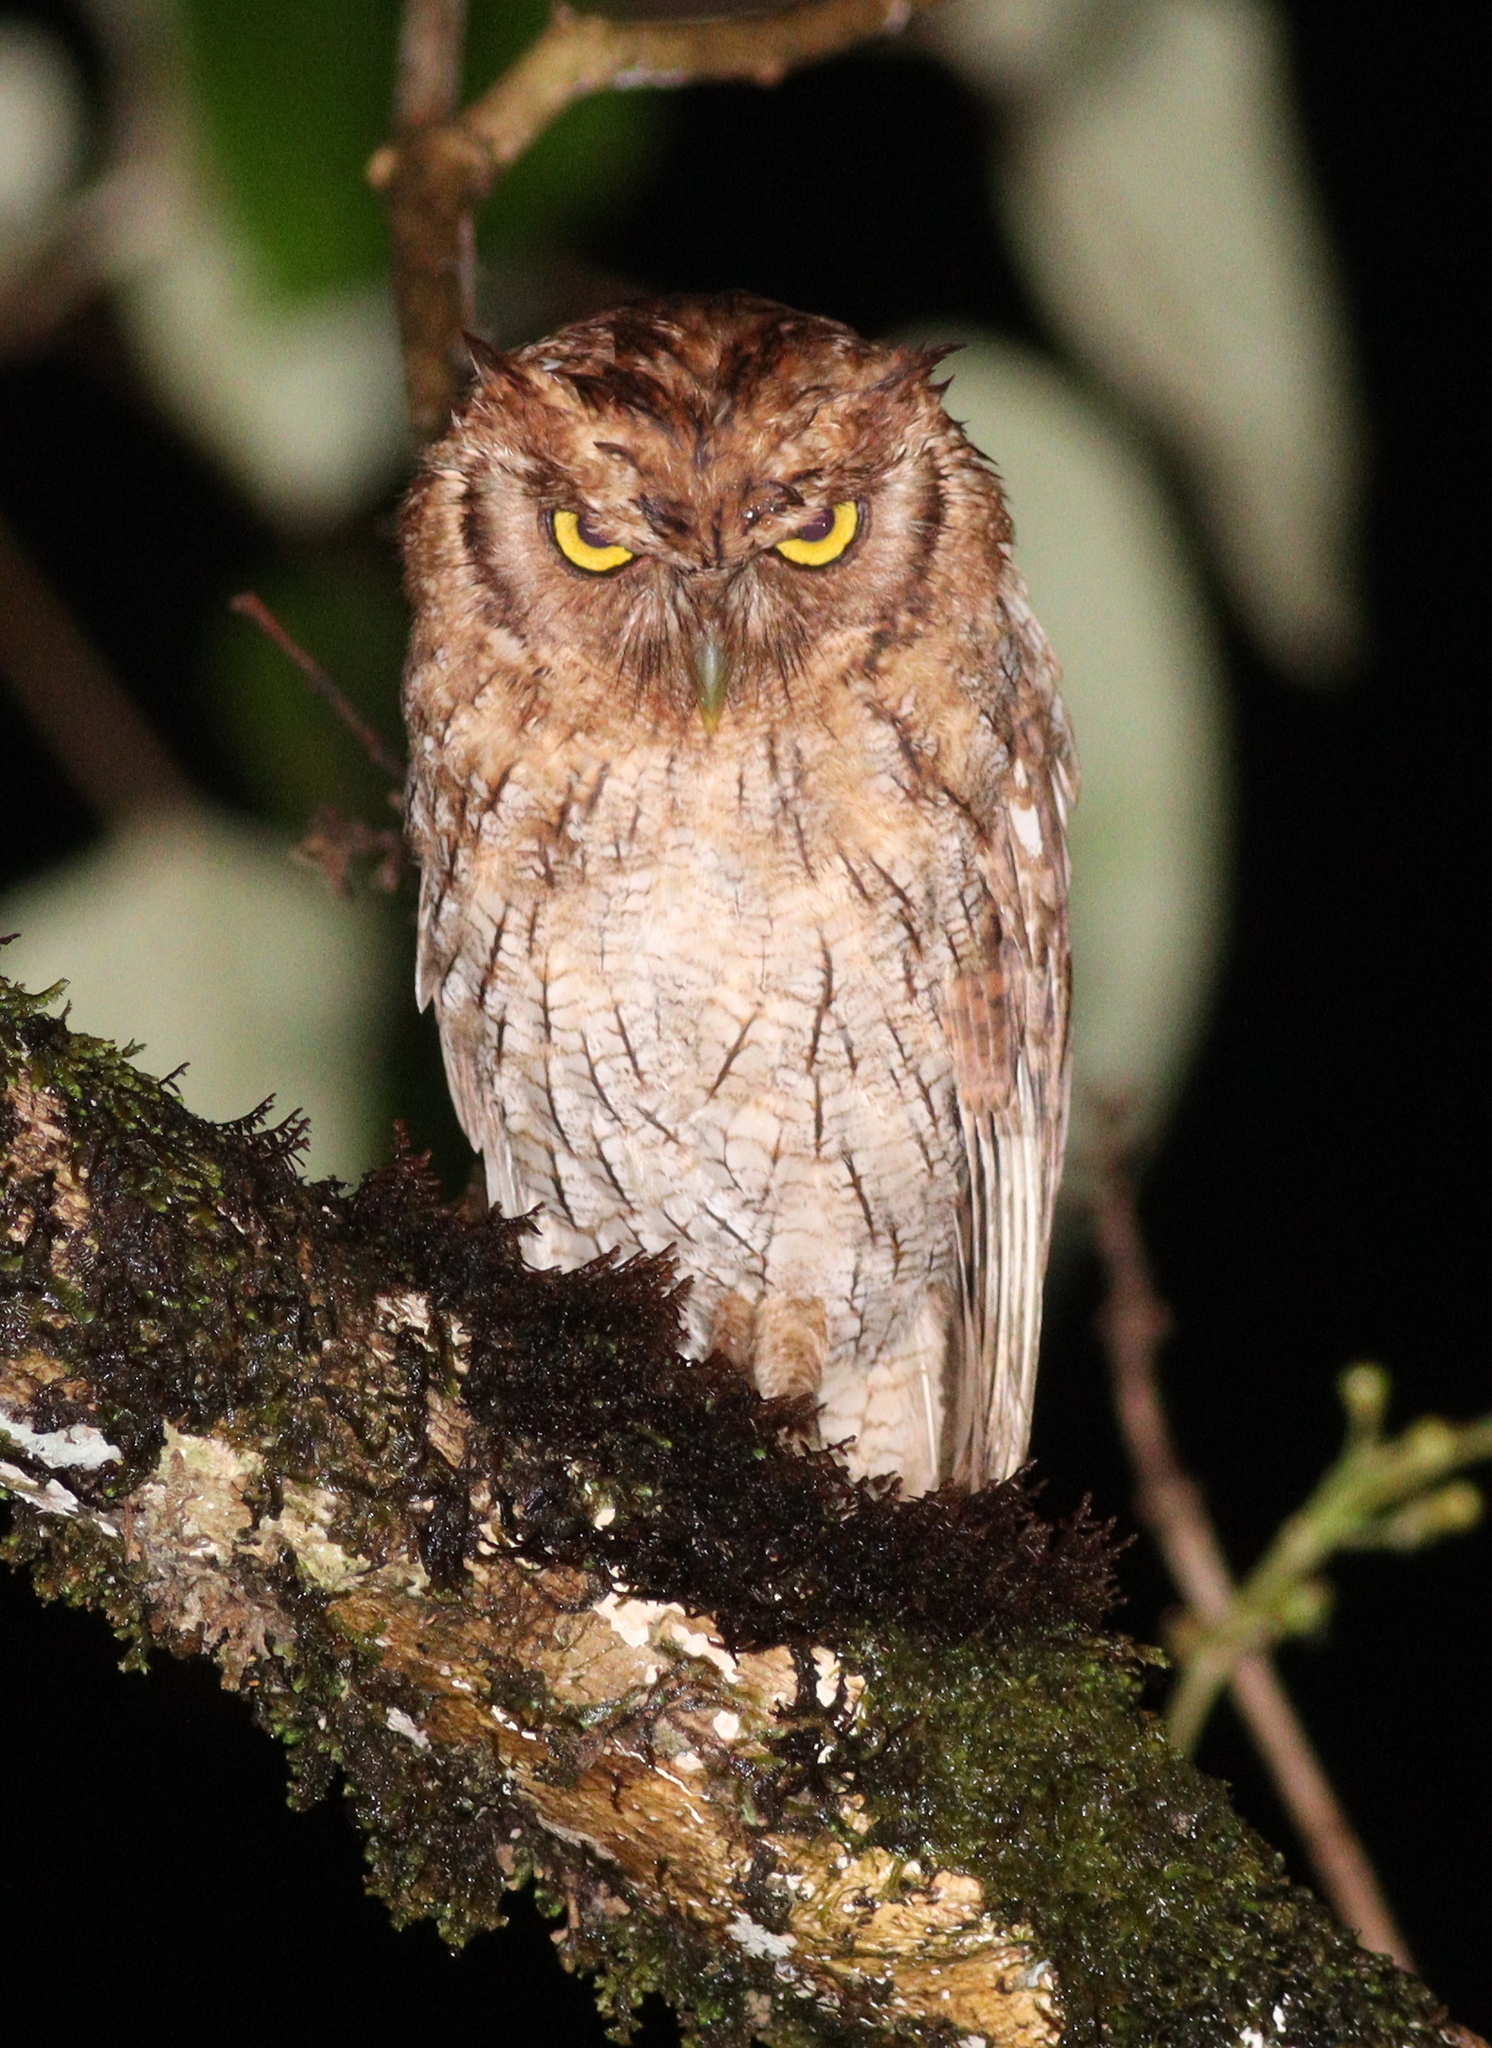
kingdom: Animalia
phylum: Chordata
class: Aves
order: Strigiformes
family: Strigidae
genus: Megascops
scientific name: Megascops choliba
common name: Tropical screech-owl
